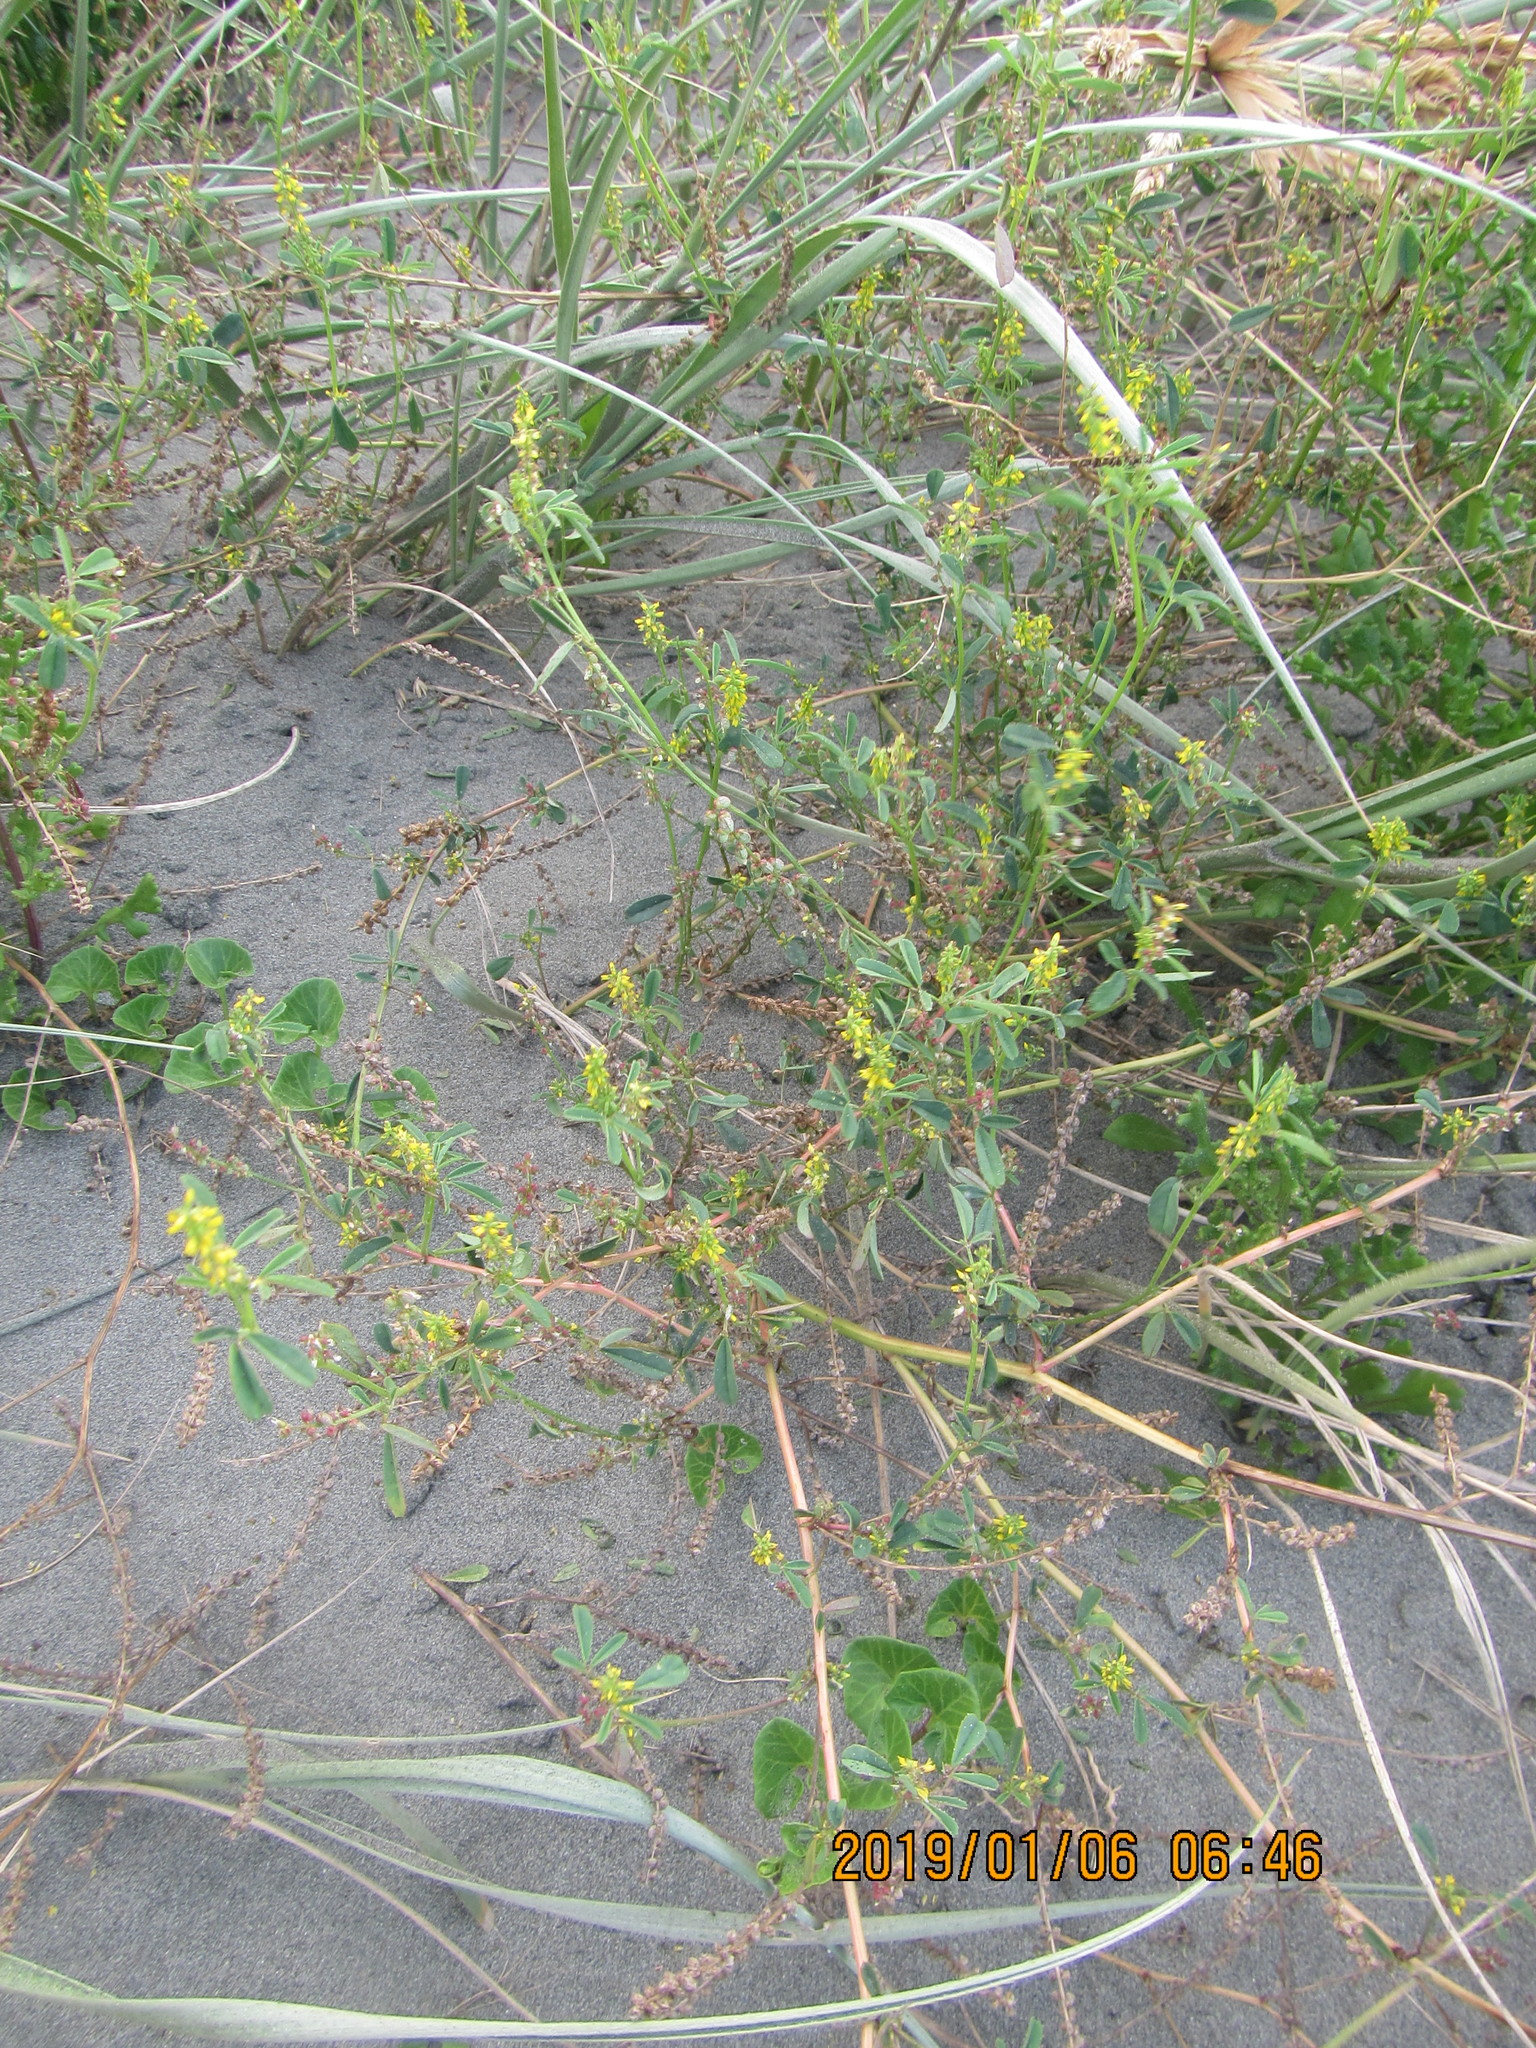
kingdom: Plantae
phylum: Tracheophyta
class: Magnoliopsida
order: Fabales
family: Fabaceae
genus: Melilotus
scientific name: Melilotus indicus
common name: Small melilot
